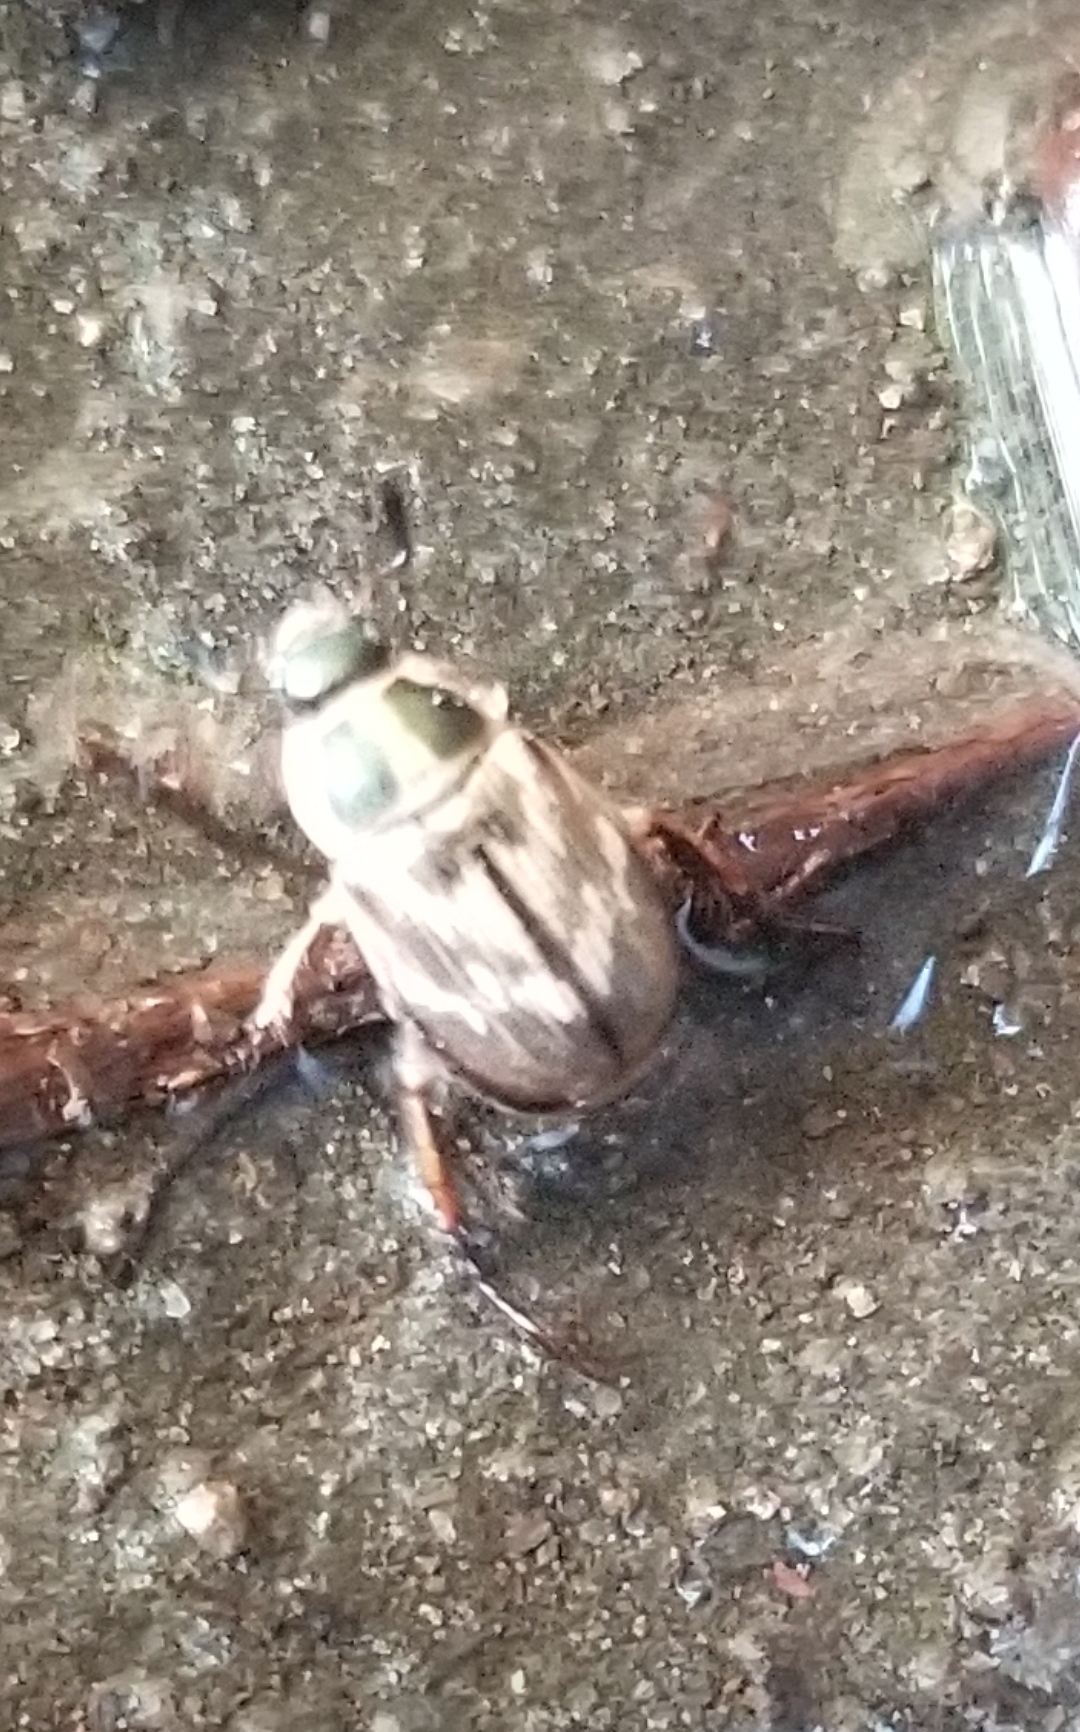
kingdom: Animalia
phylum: Arthropoda
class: Insecta
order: Coleoptera
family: Scarabaeidae
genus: Exomala
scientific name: Exomala orientalis
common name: Oriental beetle
